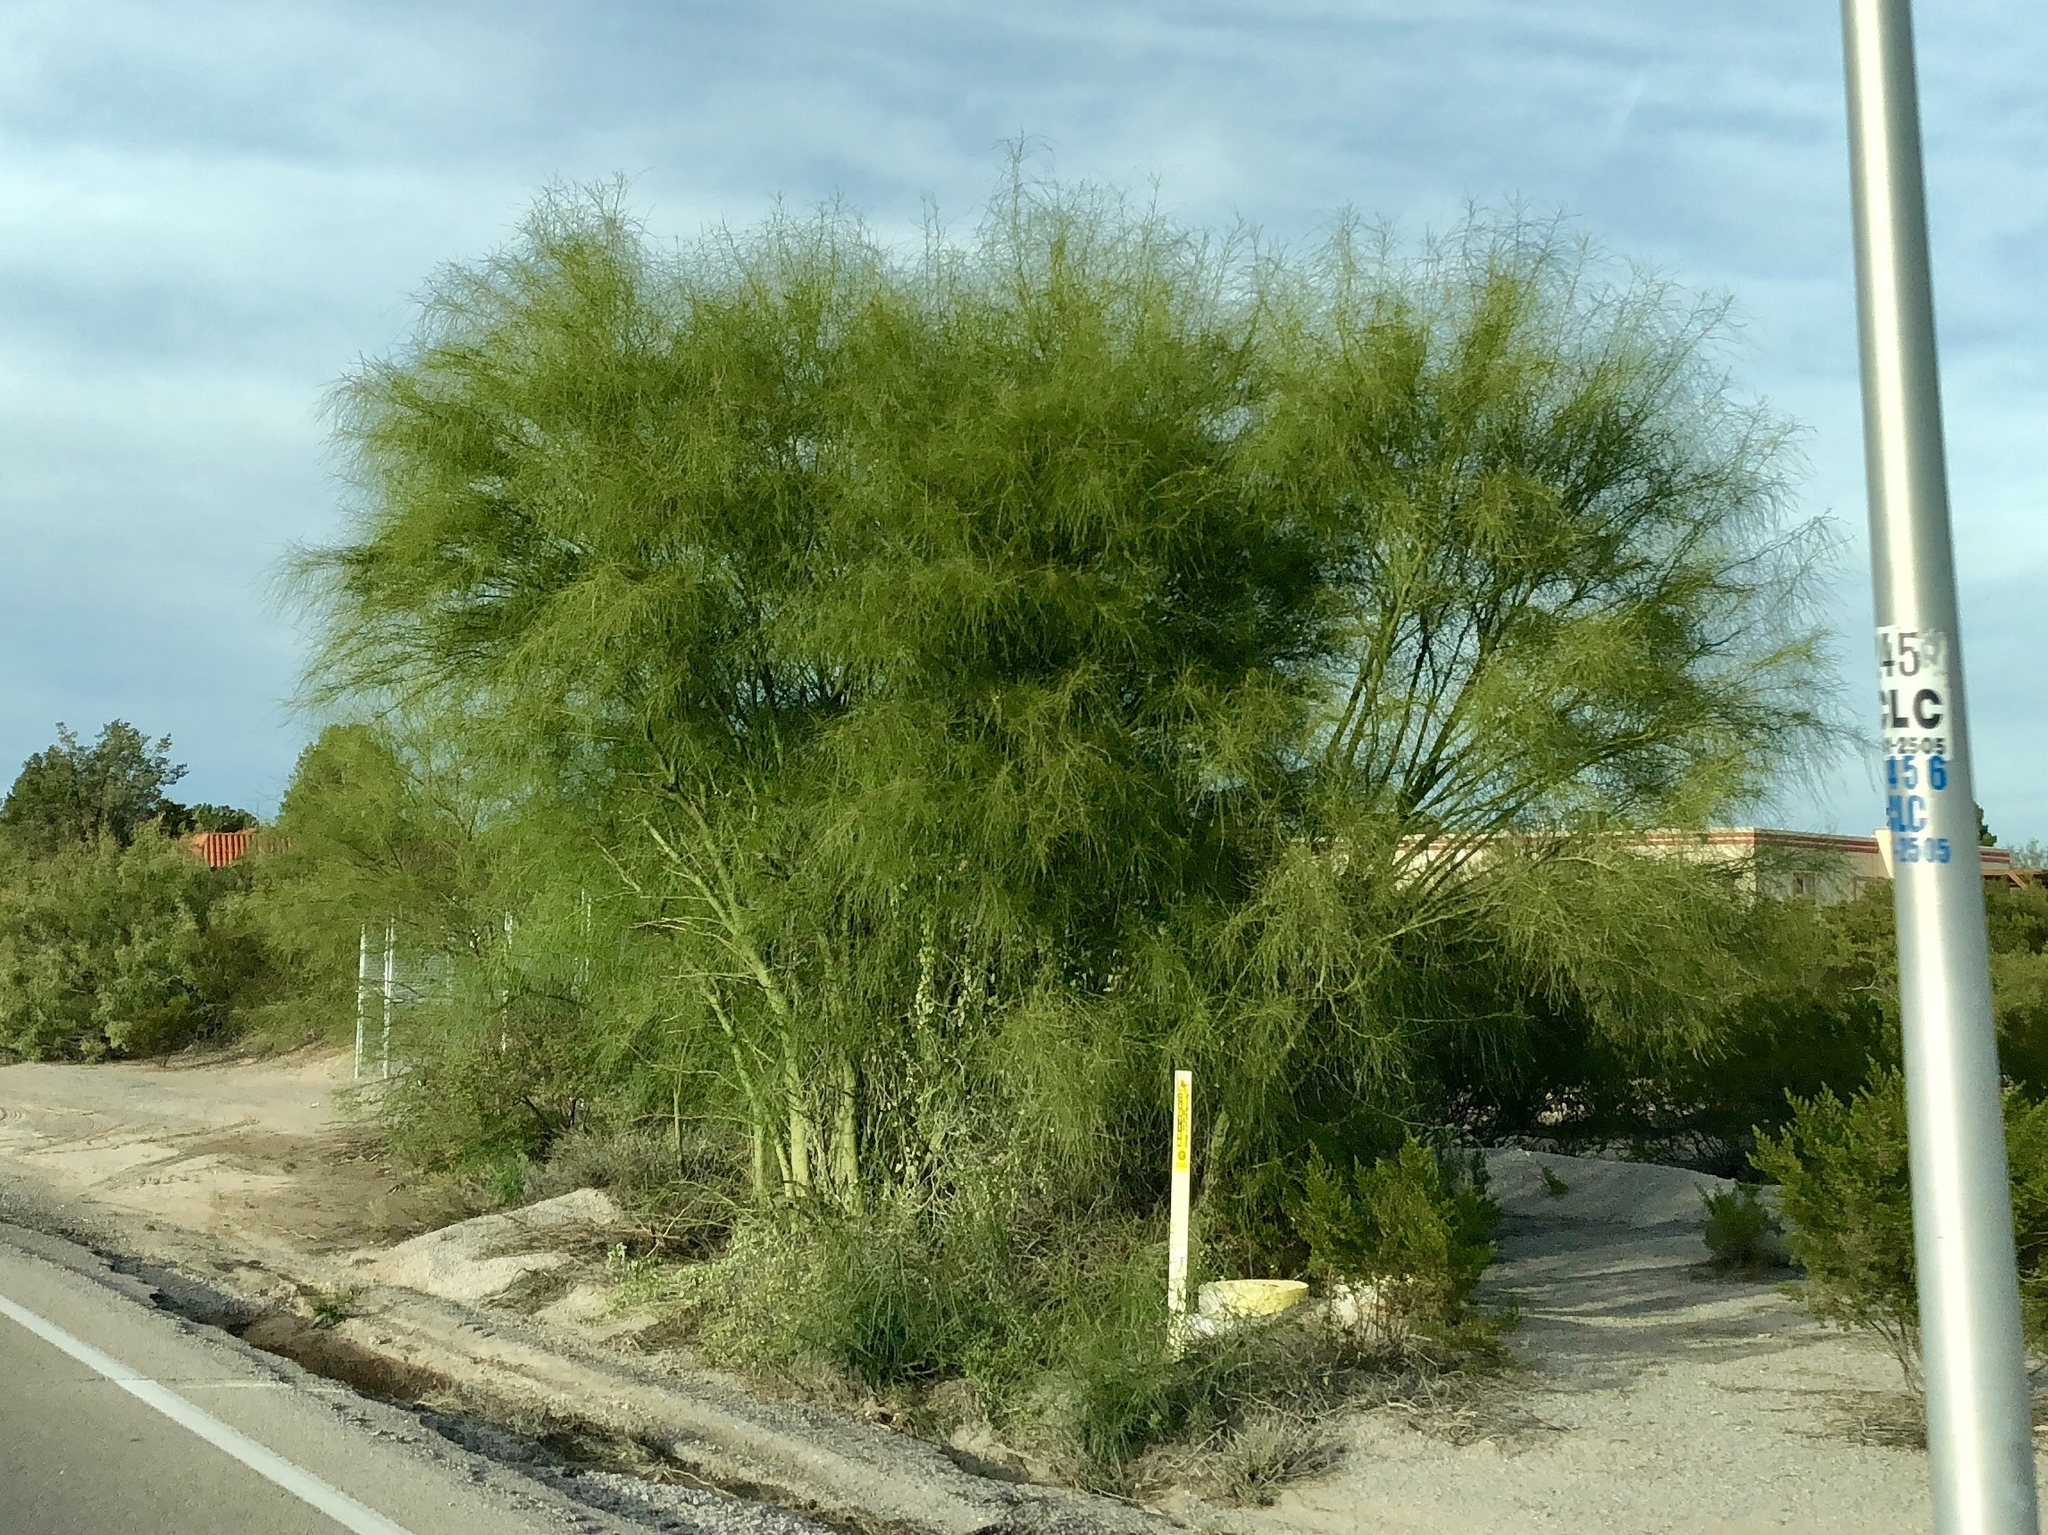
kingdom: Plantae
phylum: Tracheophyta
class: Magnoliopsida
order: Fabales
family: Fabaceae
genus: Parkinsonia
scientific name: Parkinsonia aculeata
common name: Jerusalem thorn
